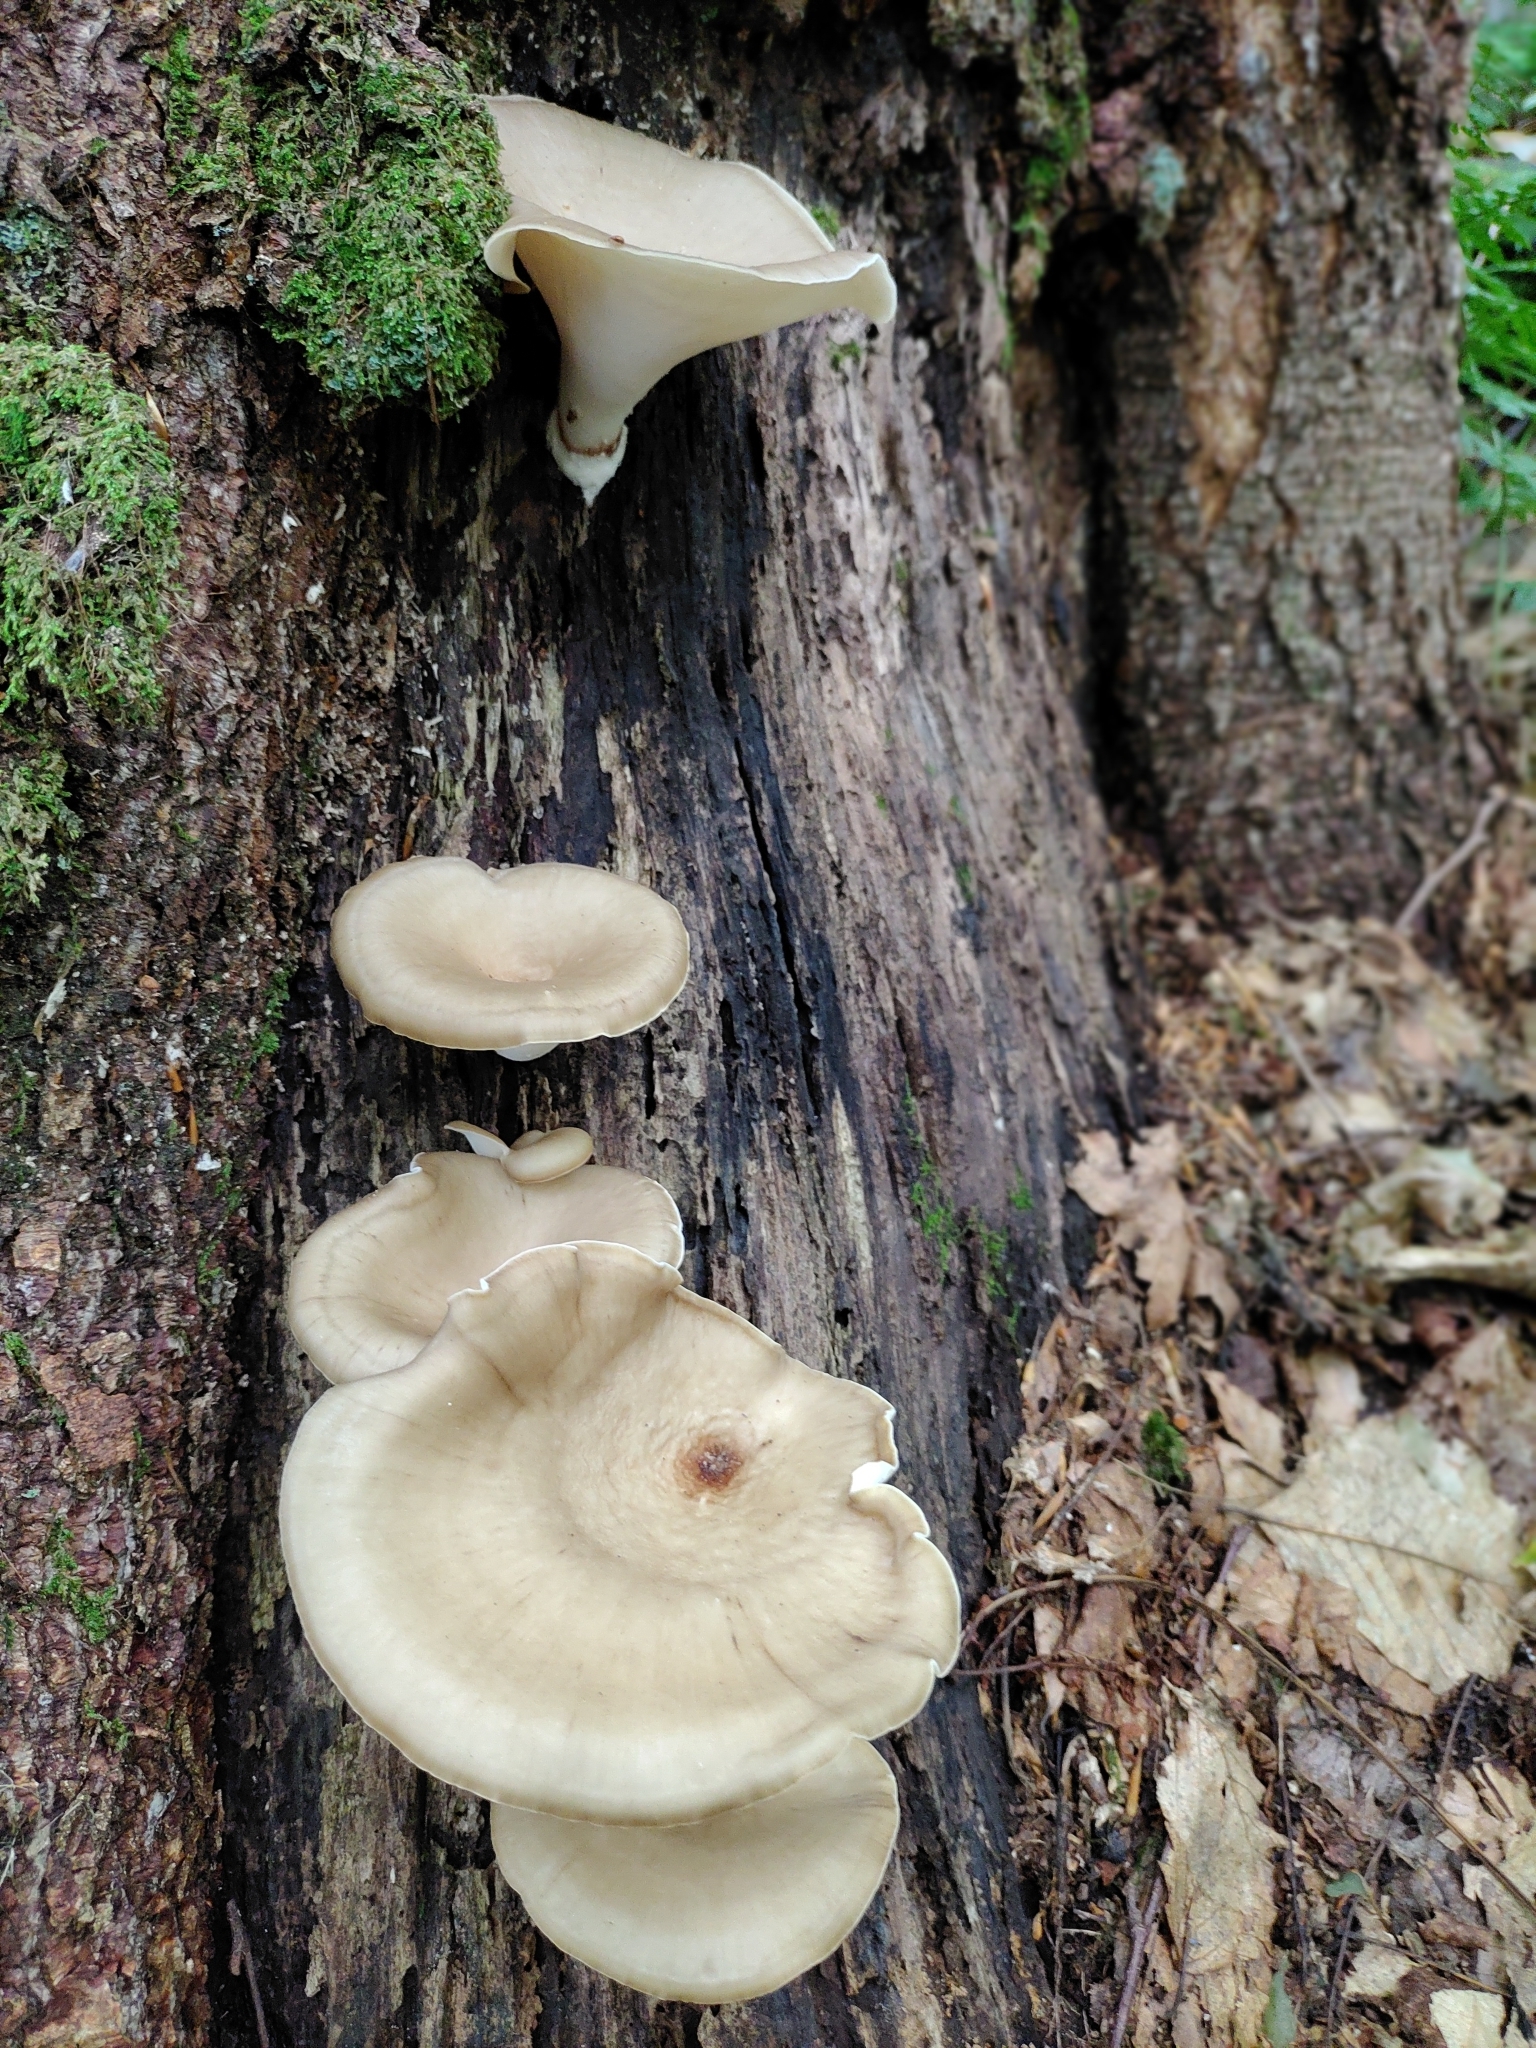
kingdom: Fungi
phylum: Basidiomycota
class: Agaricomycetes
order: Polyporales
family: Polyporaceae
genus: Picipes
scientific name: Picipes badius
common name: Bay polypore
